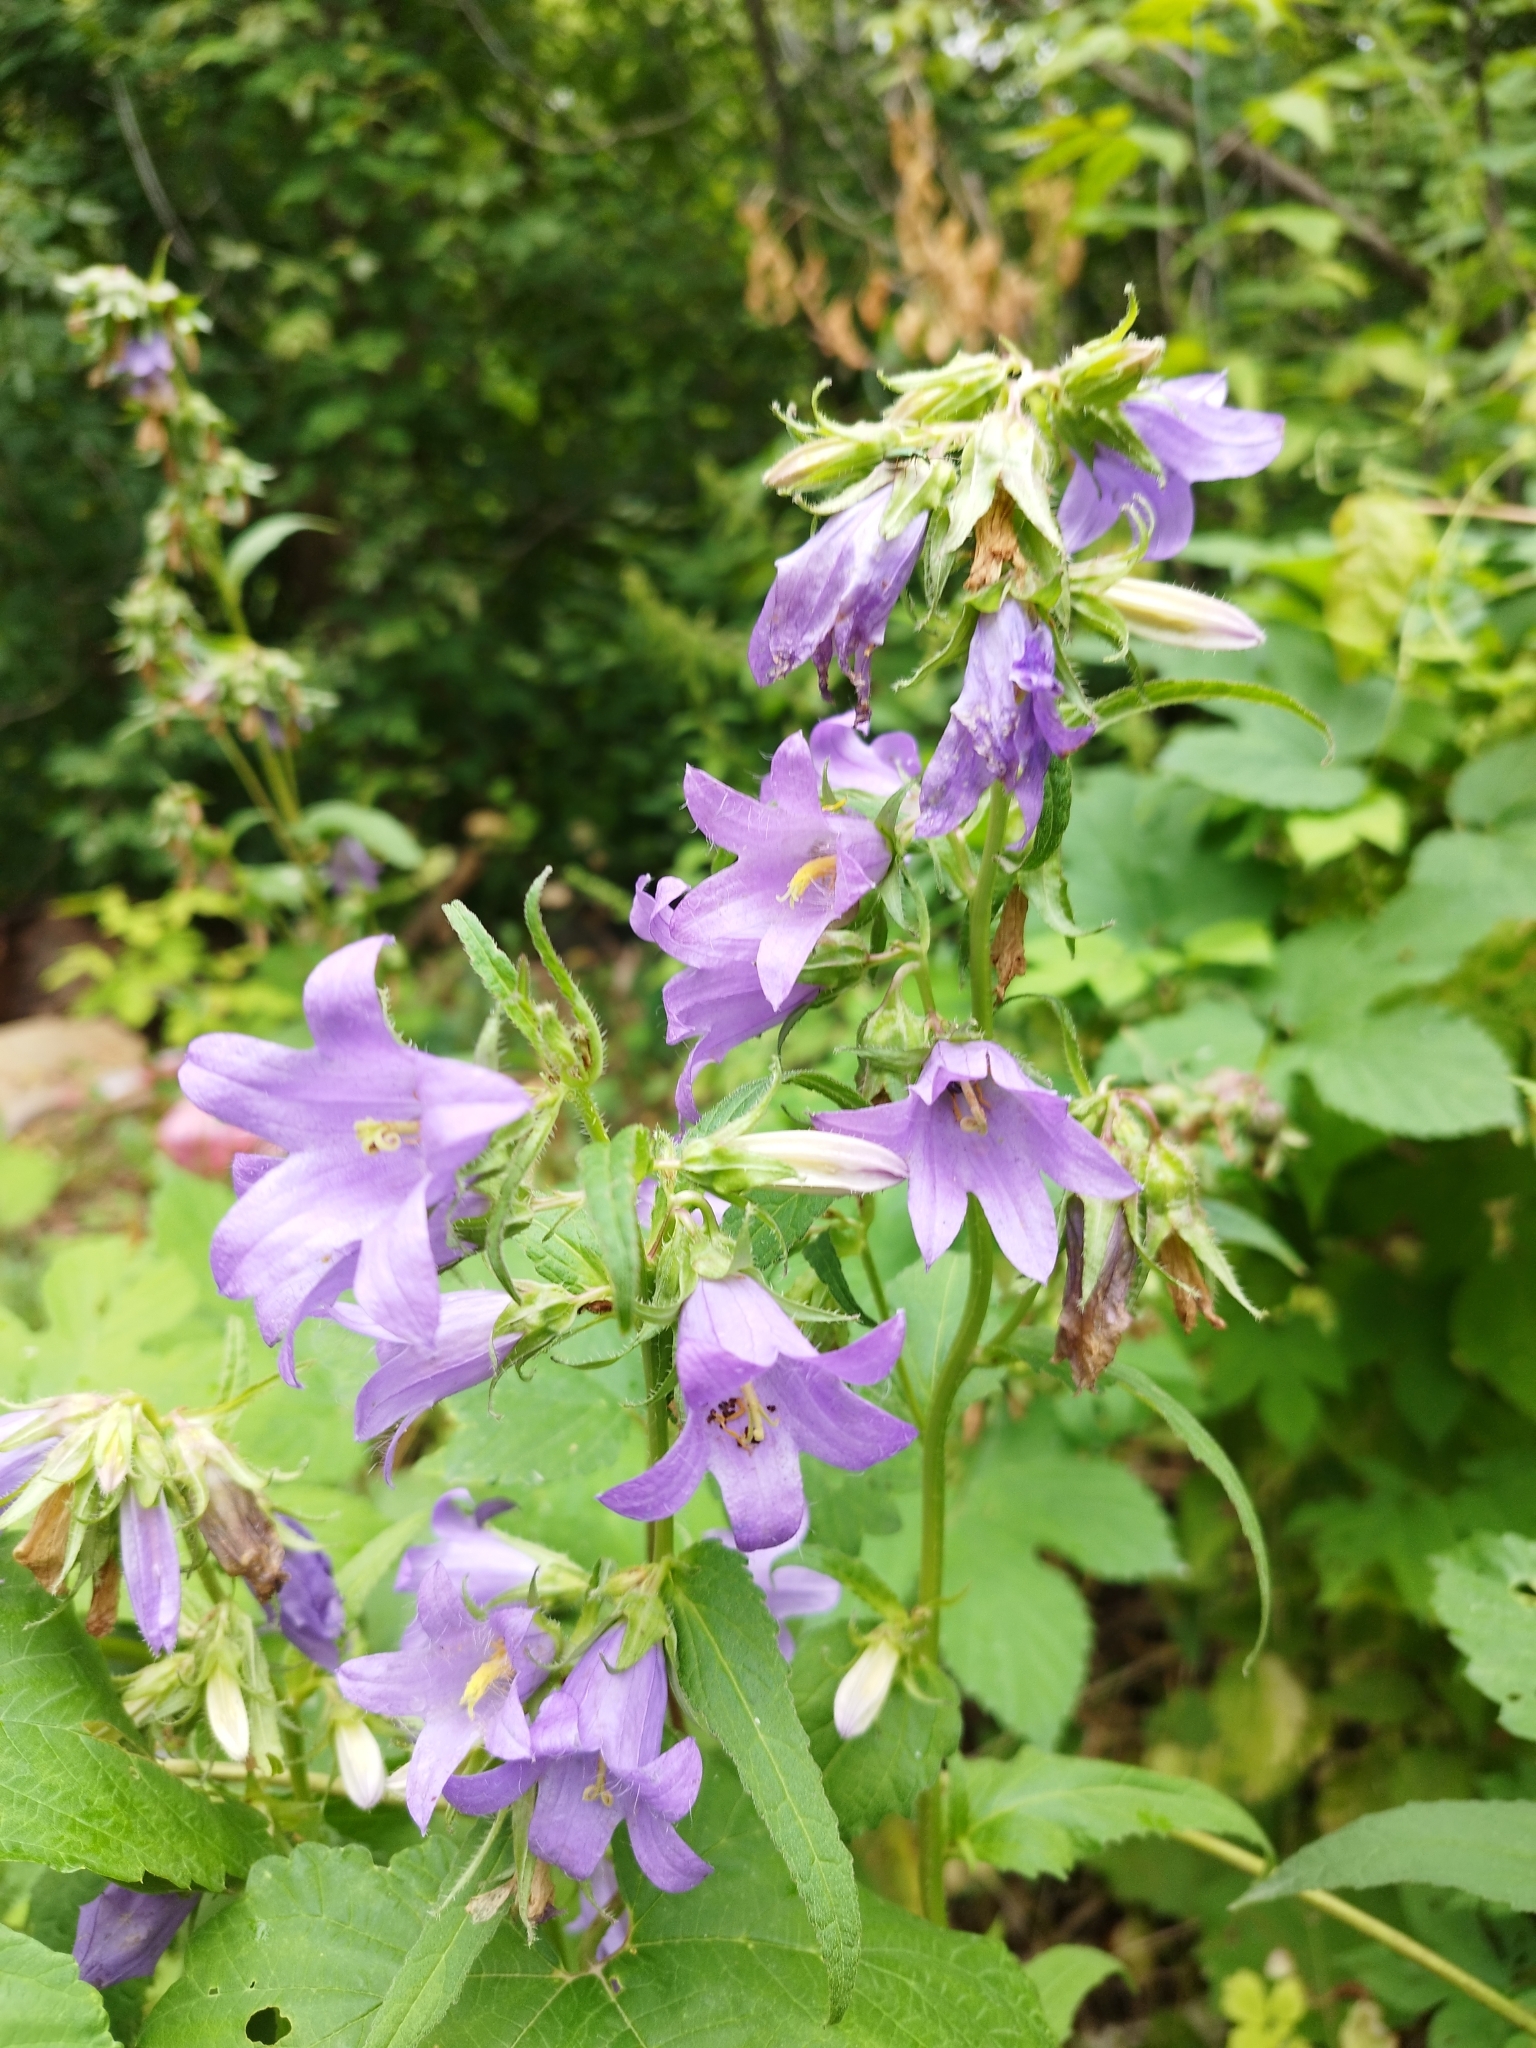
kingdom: Plantae
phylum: Tracheophyta
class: Magnoliopsida
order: Asterales
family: Campanulaceae
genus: Campanula
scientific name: Campanula trachelium
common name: Nettle-leaved bellflower
